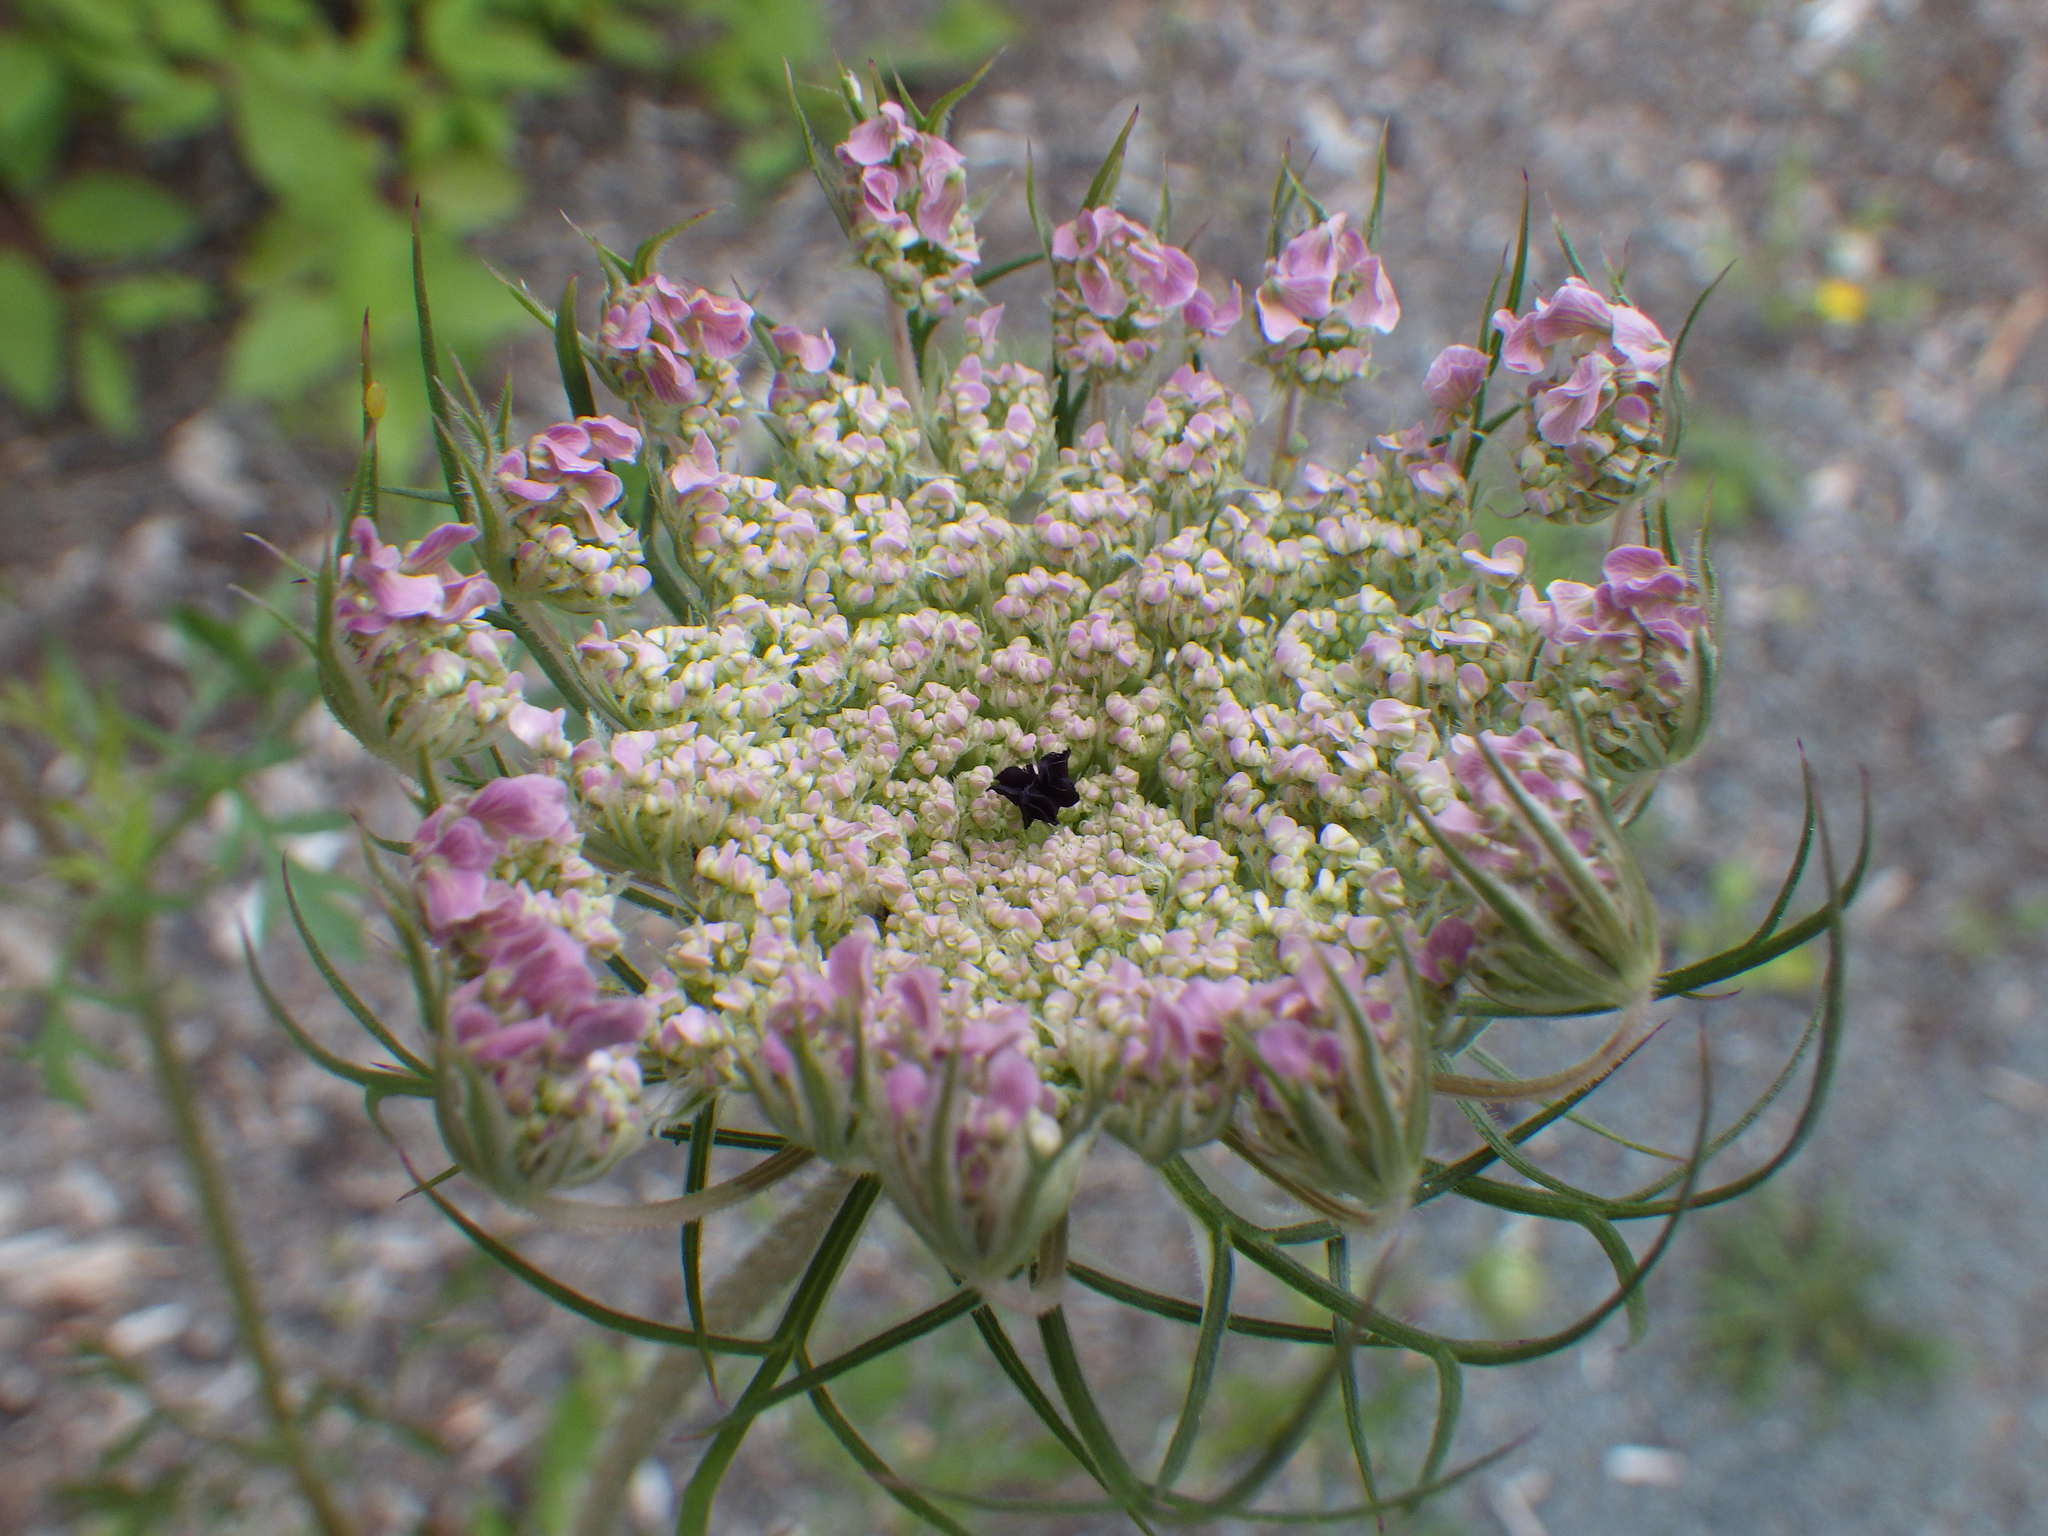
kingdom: Plantae
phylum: Tracheophyta
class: Magnoliopsida
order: Apiales
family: Apiaceae
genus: Daucus
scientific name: Daucus carota
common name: Wild carrot
